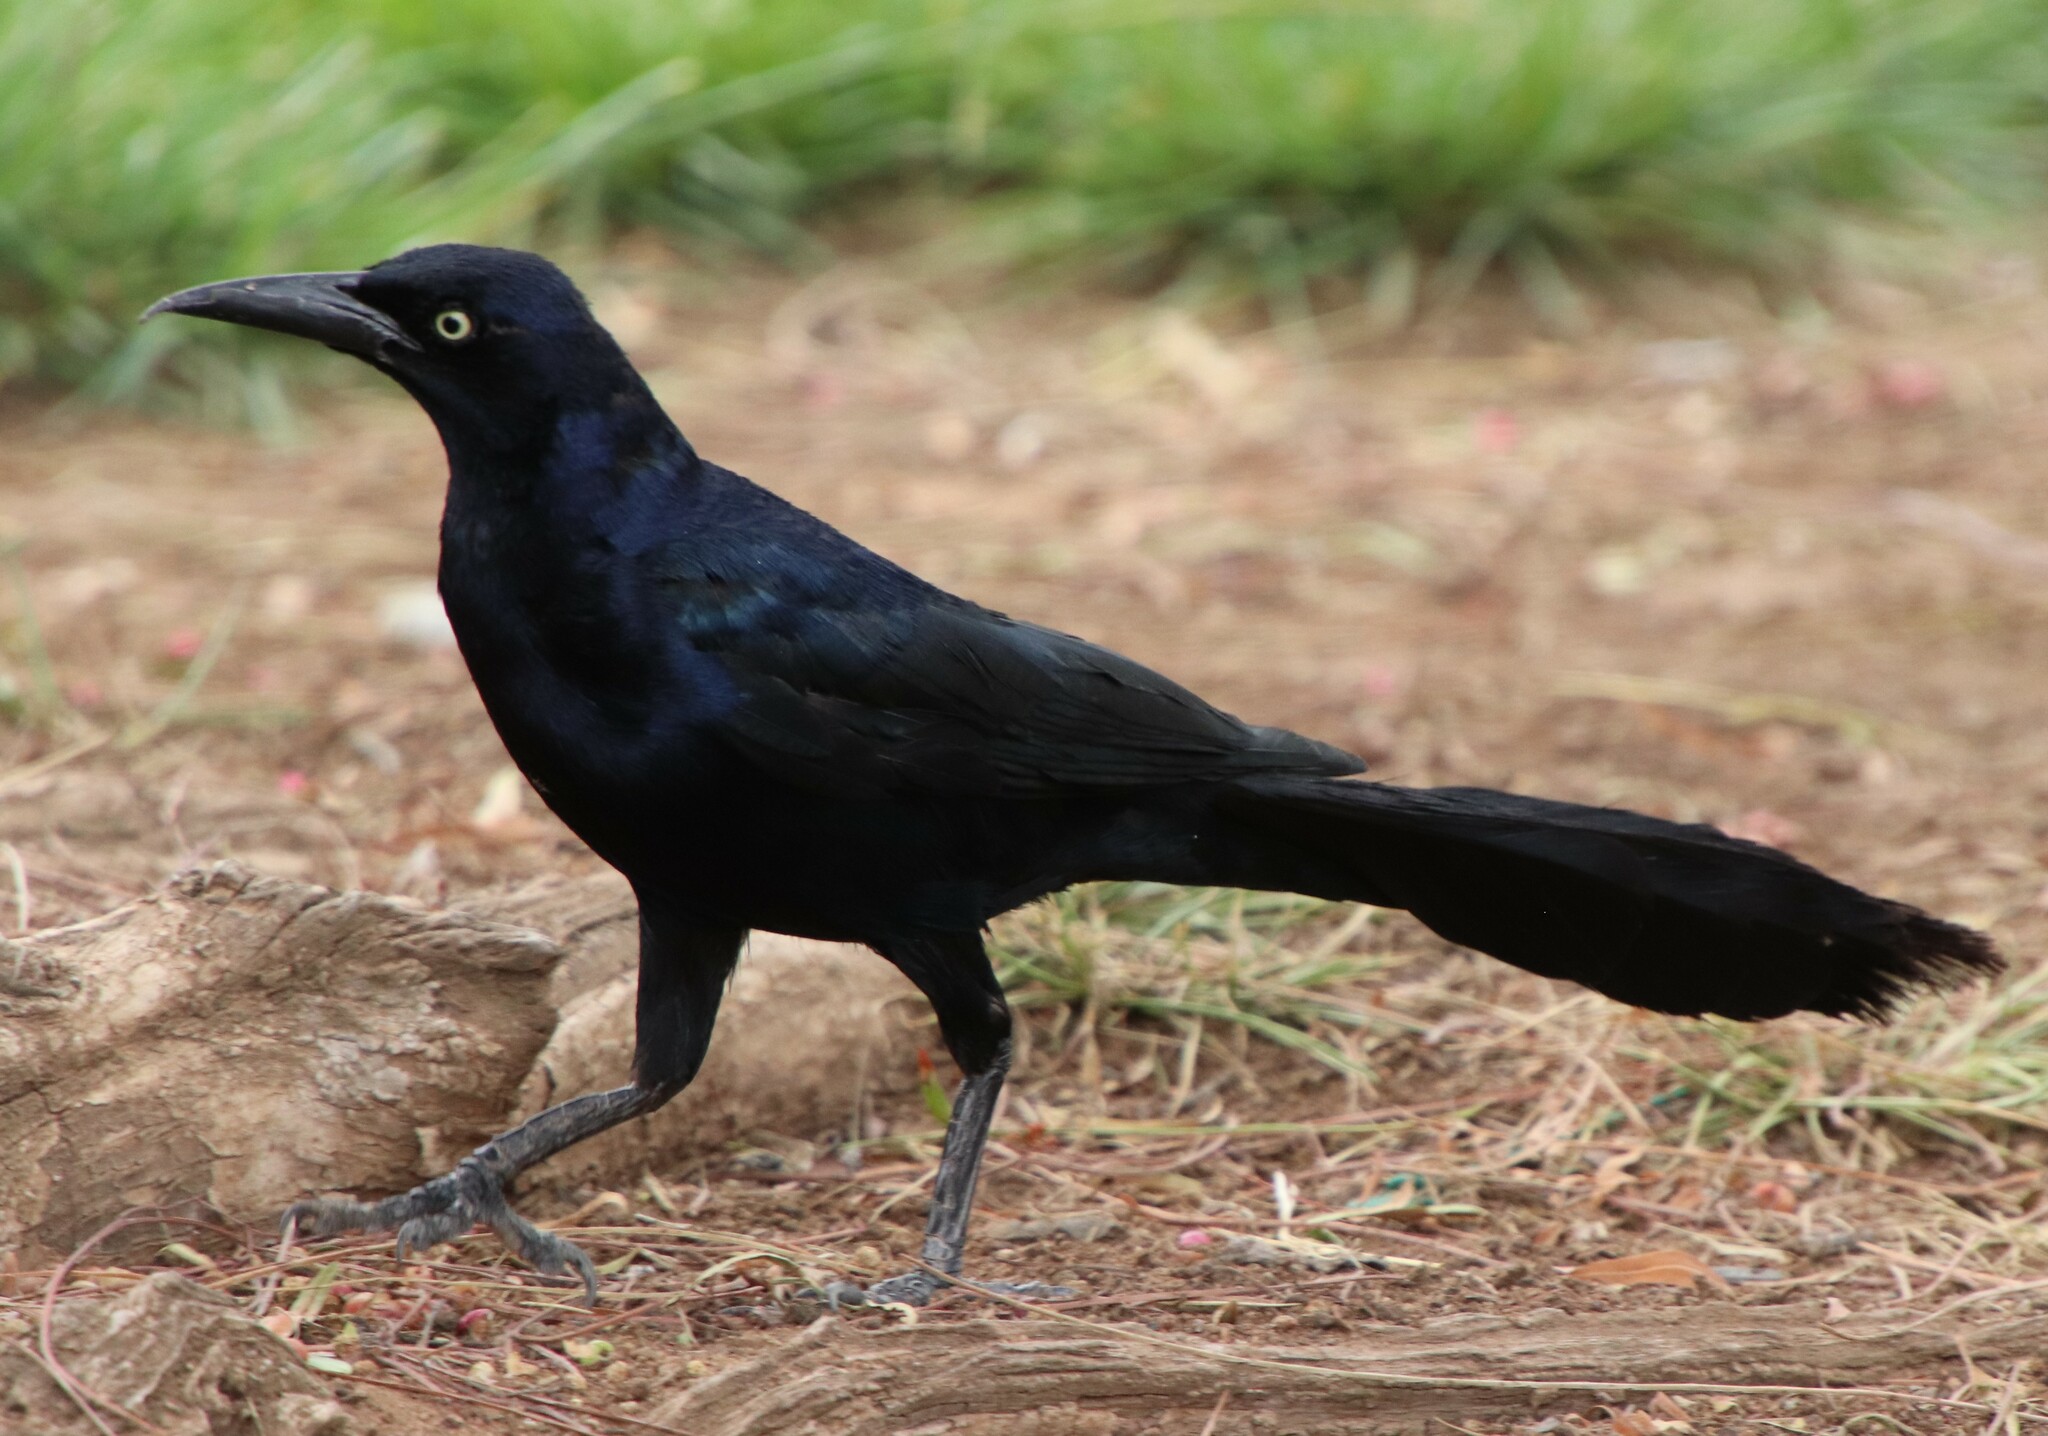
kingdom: Animalia
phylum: Chordata
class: Aves
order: Passeriformes
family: Icteridae
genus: Quiscalus
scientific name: Quiscalus mexicanus
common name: Great-tailed grackle
